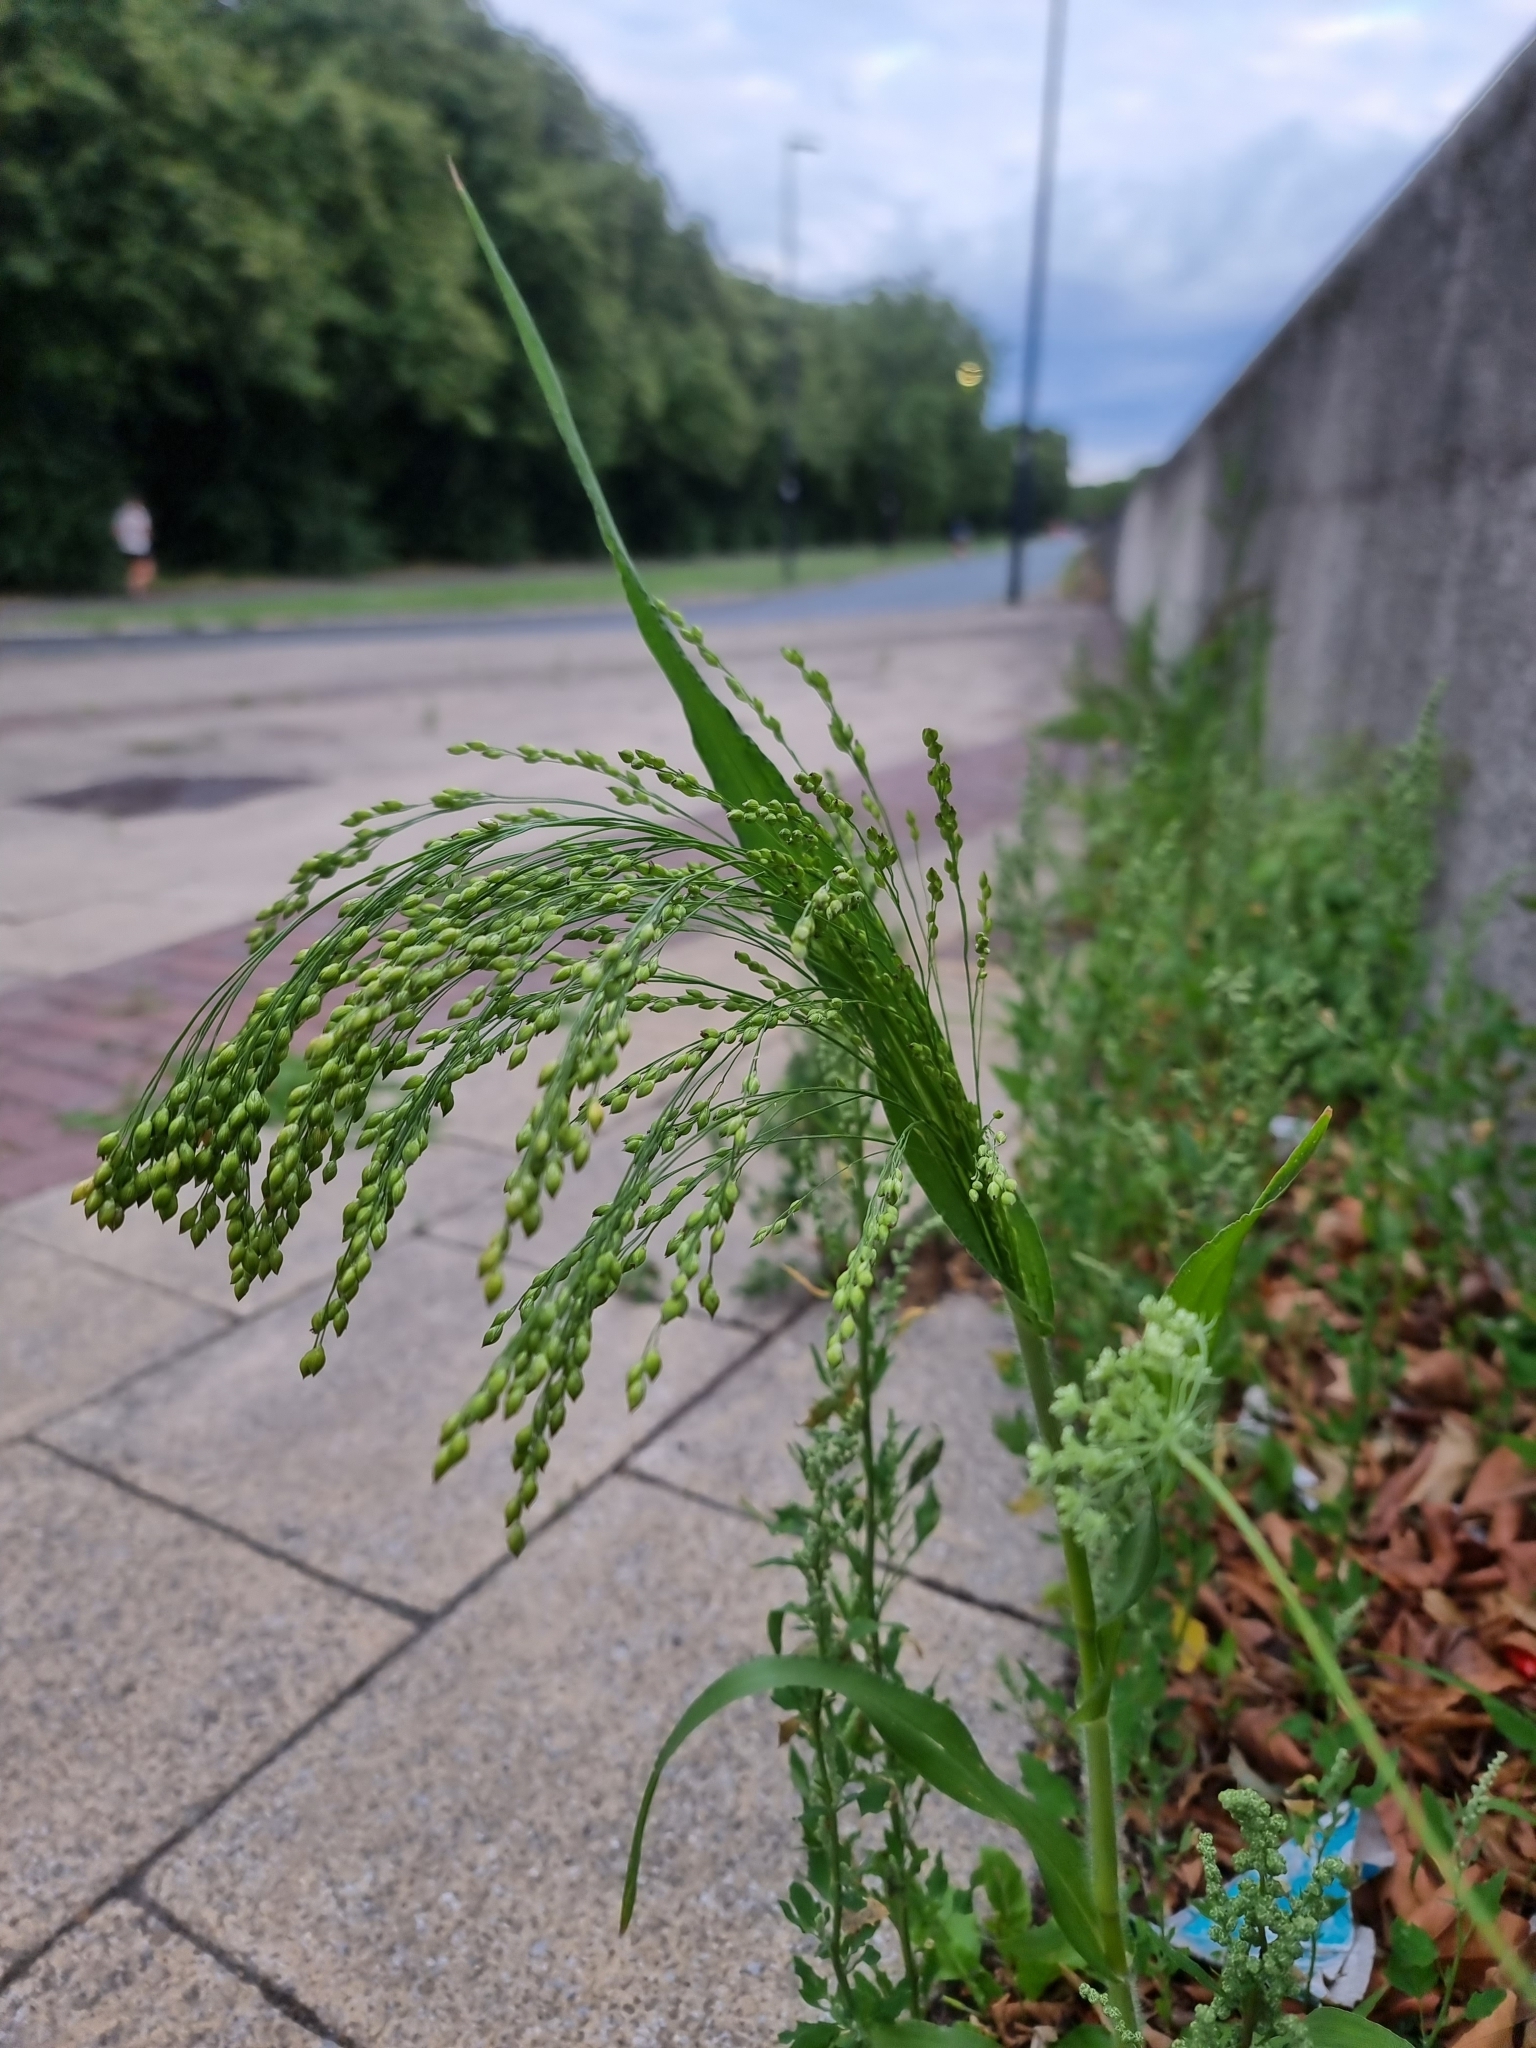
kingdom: Plantae
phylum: Tracheophyta
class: Liliopsida
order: Poales
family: Poaceae
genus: Panicum
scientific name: Panicum miliaceum
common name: Common millet
